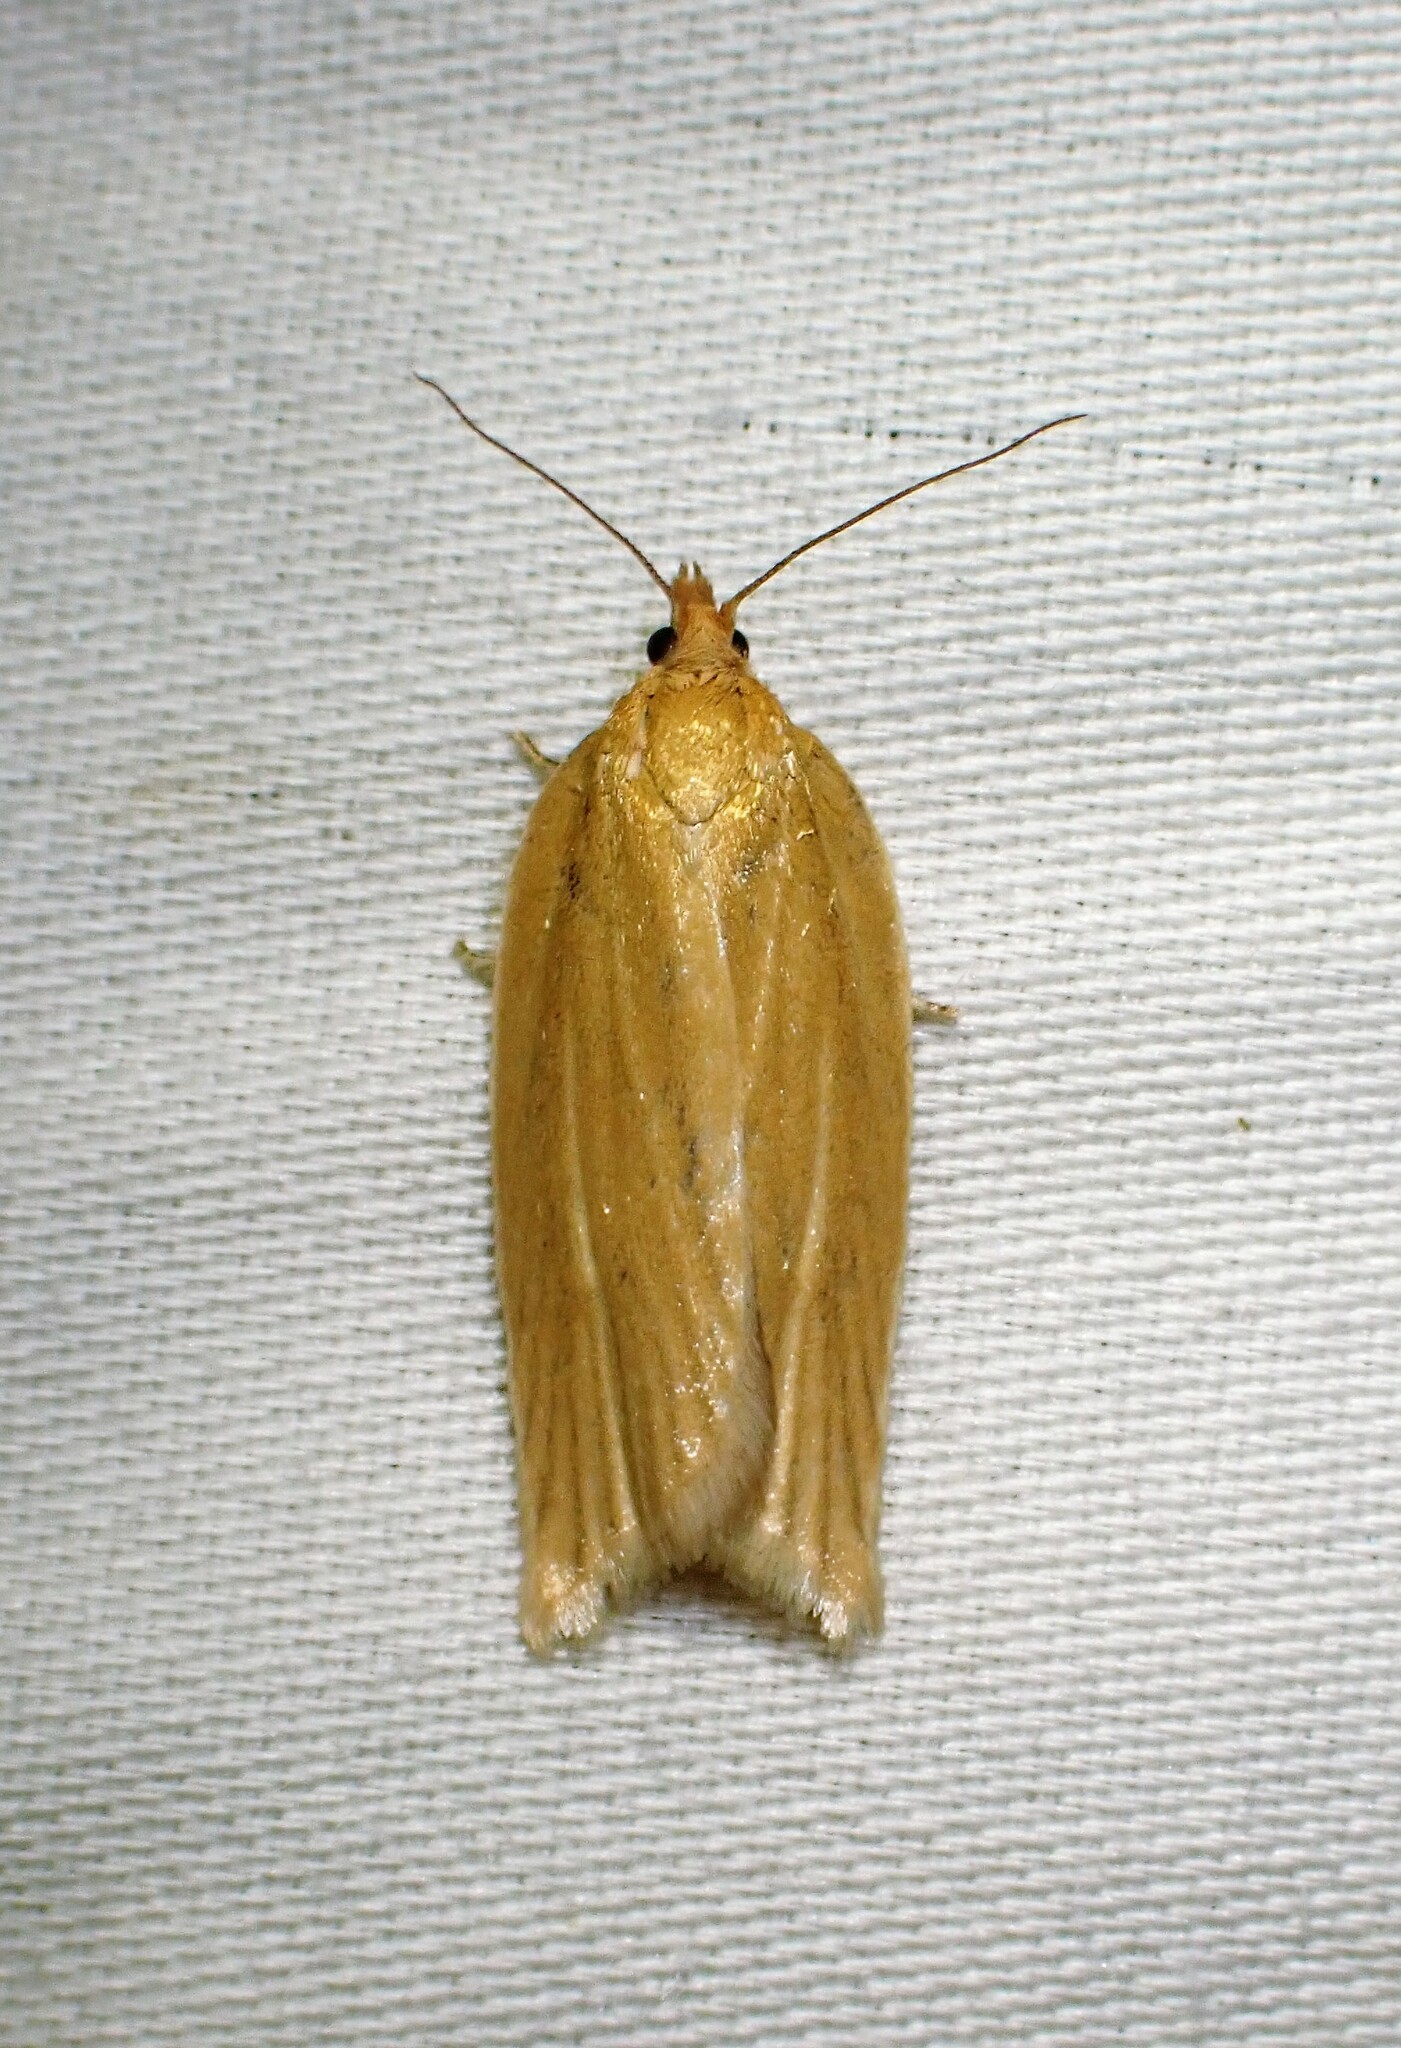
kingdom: Animalia
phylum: Arthropoda
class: Insecta
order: Lepidoptera
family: Tortricidae
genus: Clepsis
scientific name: Clepsis clemensiana
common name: Clemens' clepsis moth
